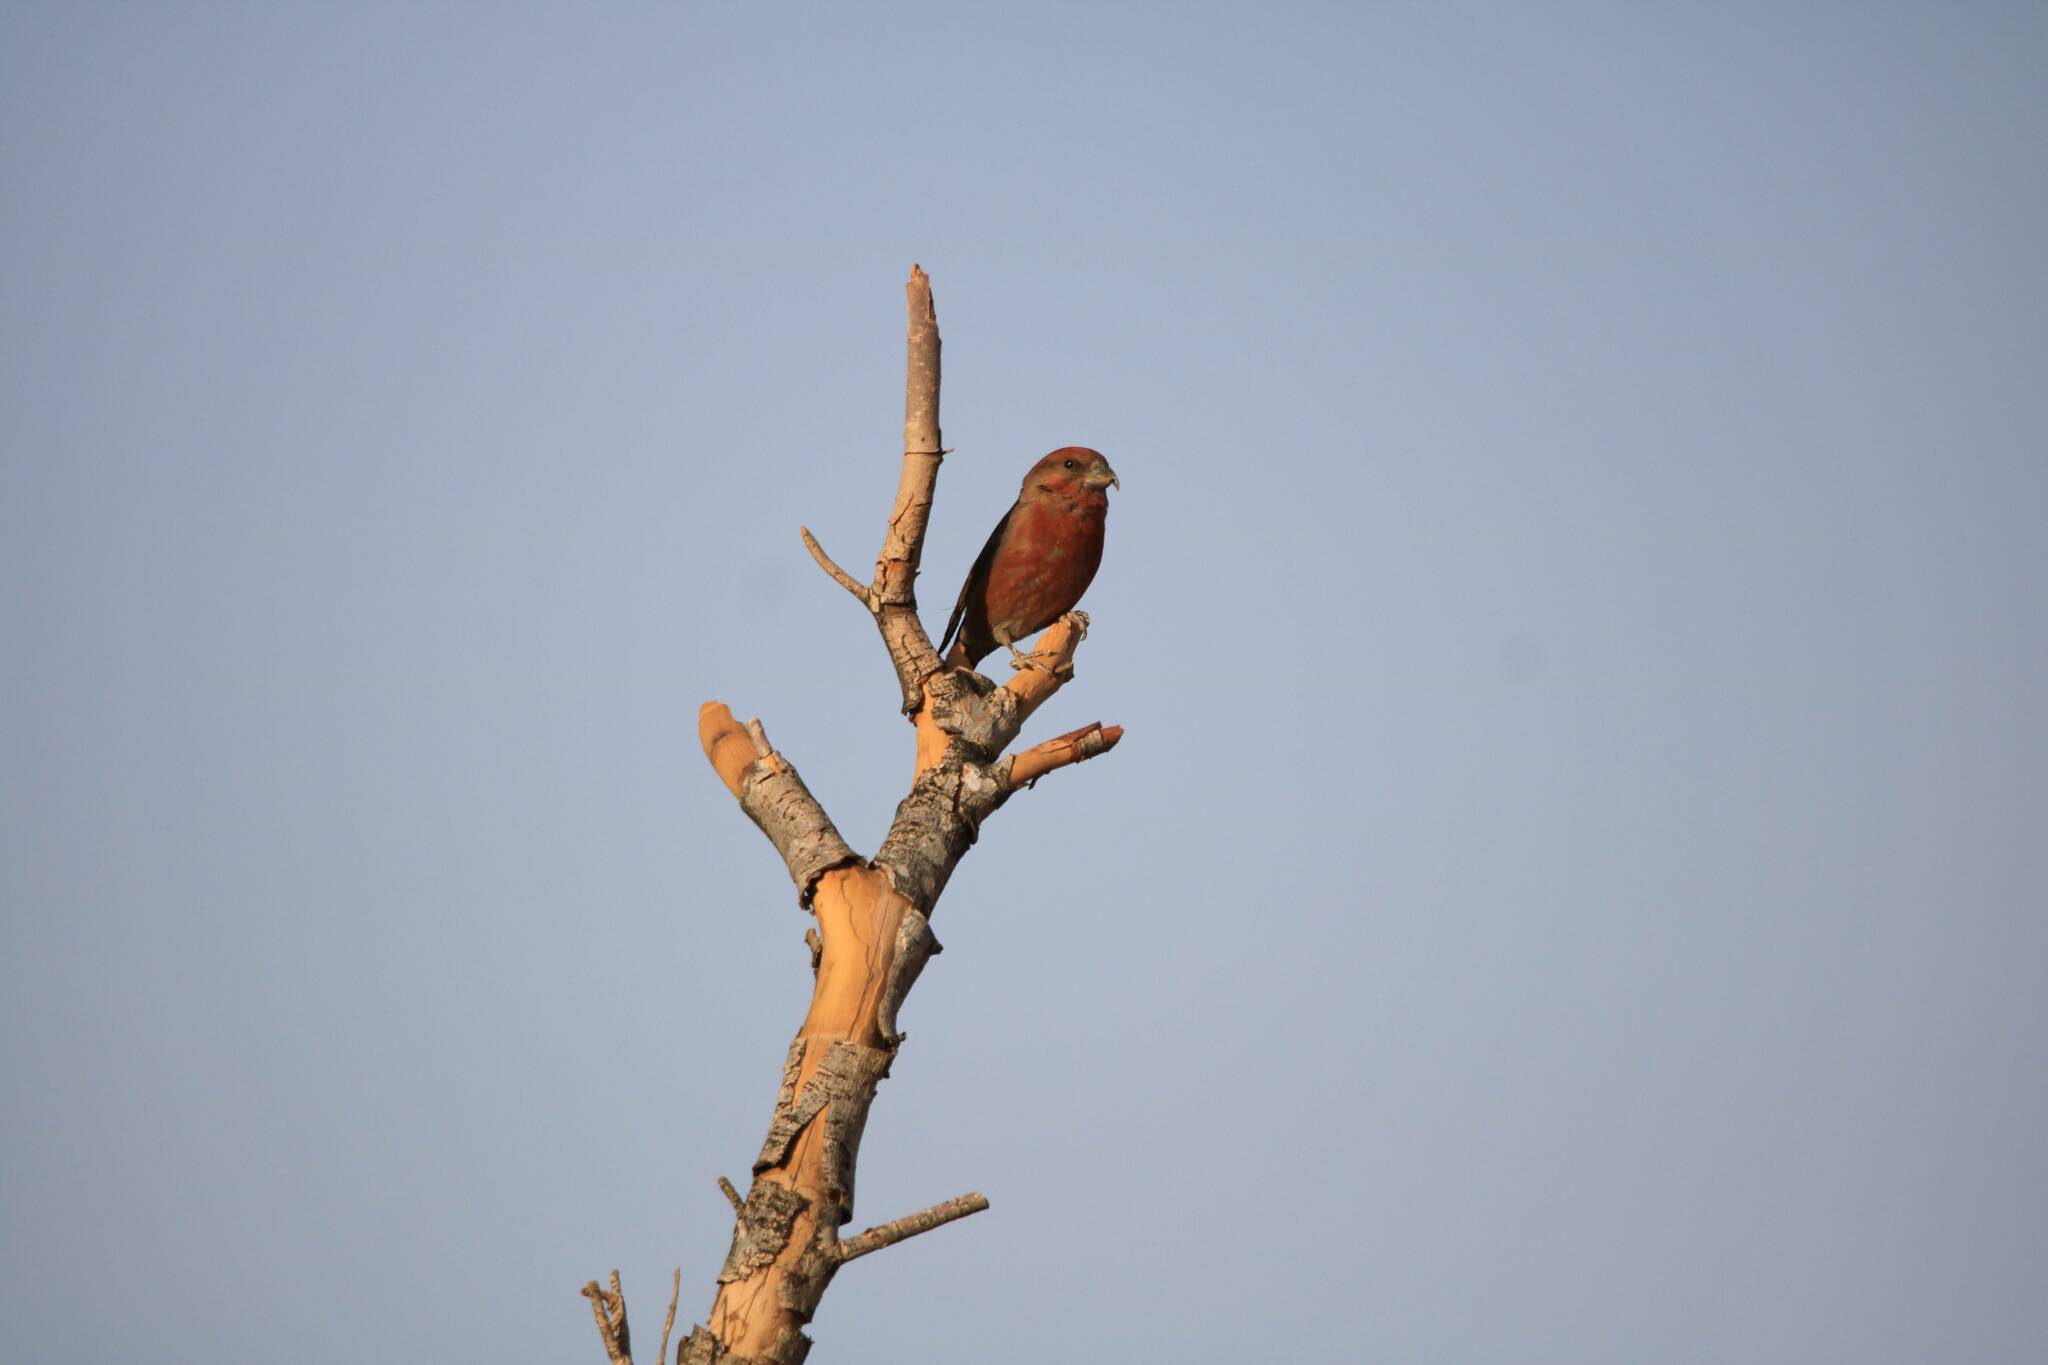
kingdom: Animalia
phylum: Chordata
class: Aves
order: Passeriformes
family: Fringillidae
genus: Loxia
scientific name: Loxia curvirostra
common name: Red crossbill
